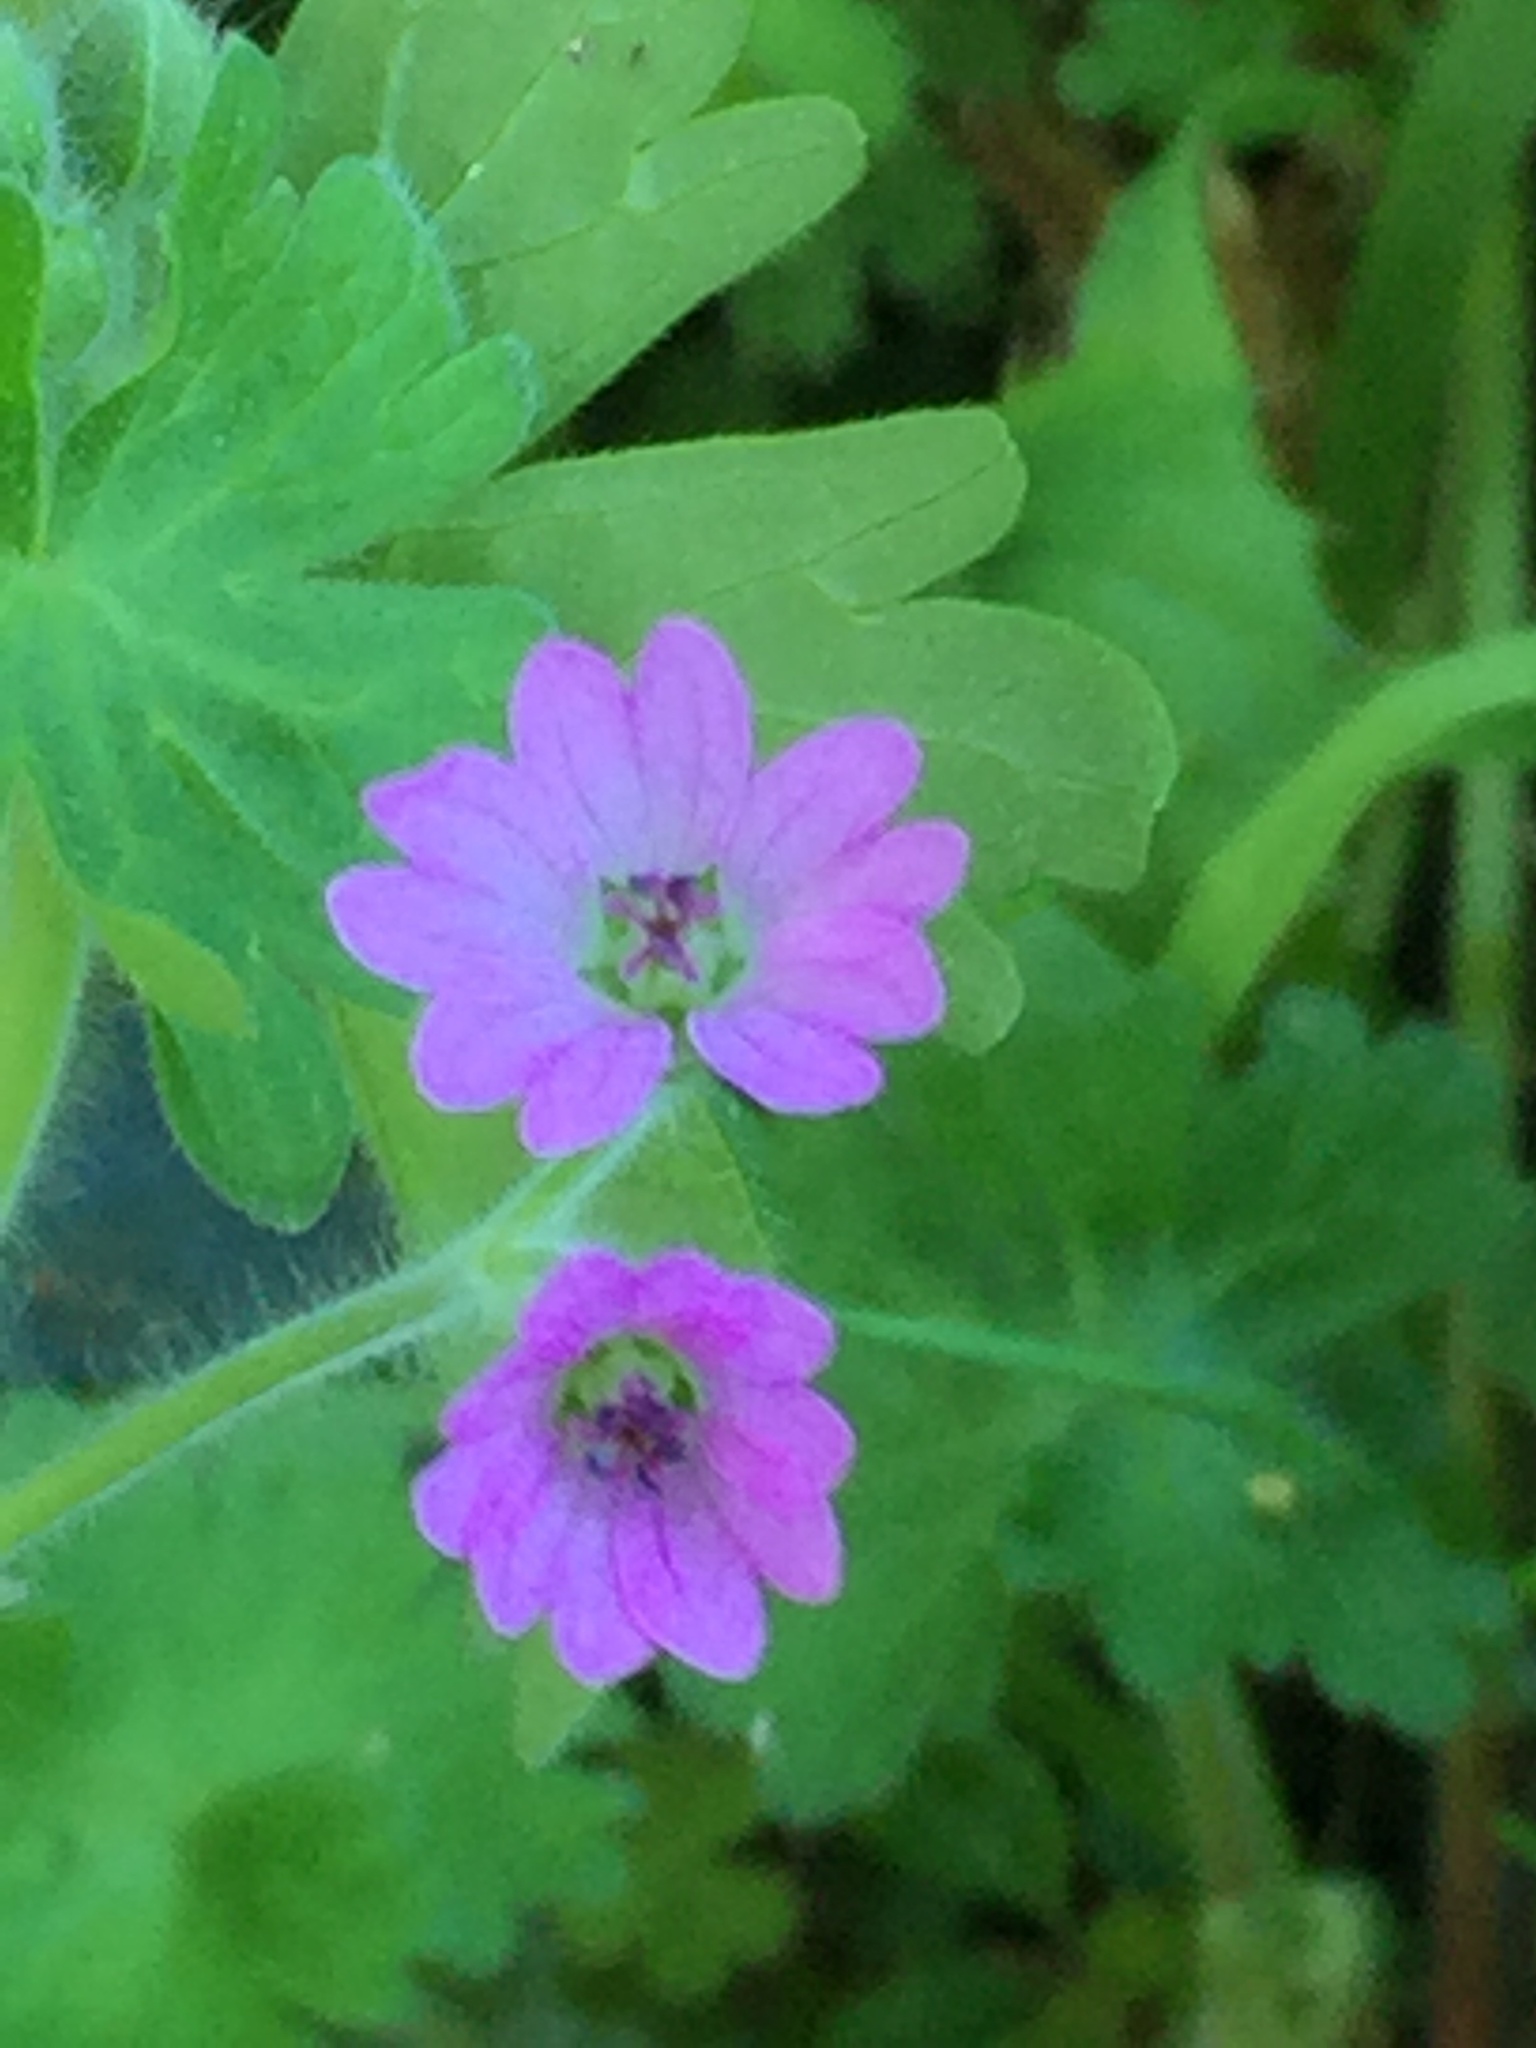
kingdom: Plantae
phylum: Tracheophyta
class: Magnoliopsida
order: Geraniales
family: Geraniaceae
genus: Geranium
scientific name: Geranium molle
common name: Dove's-foot crane's-bill
